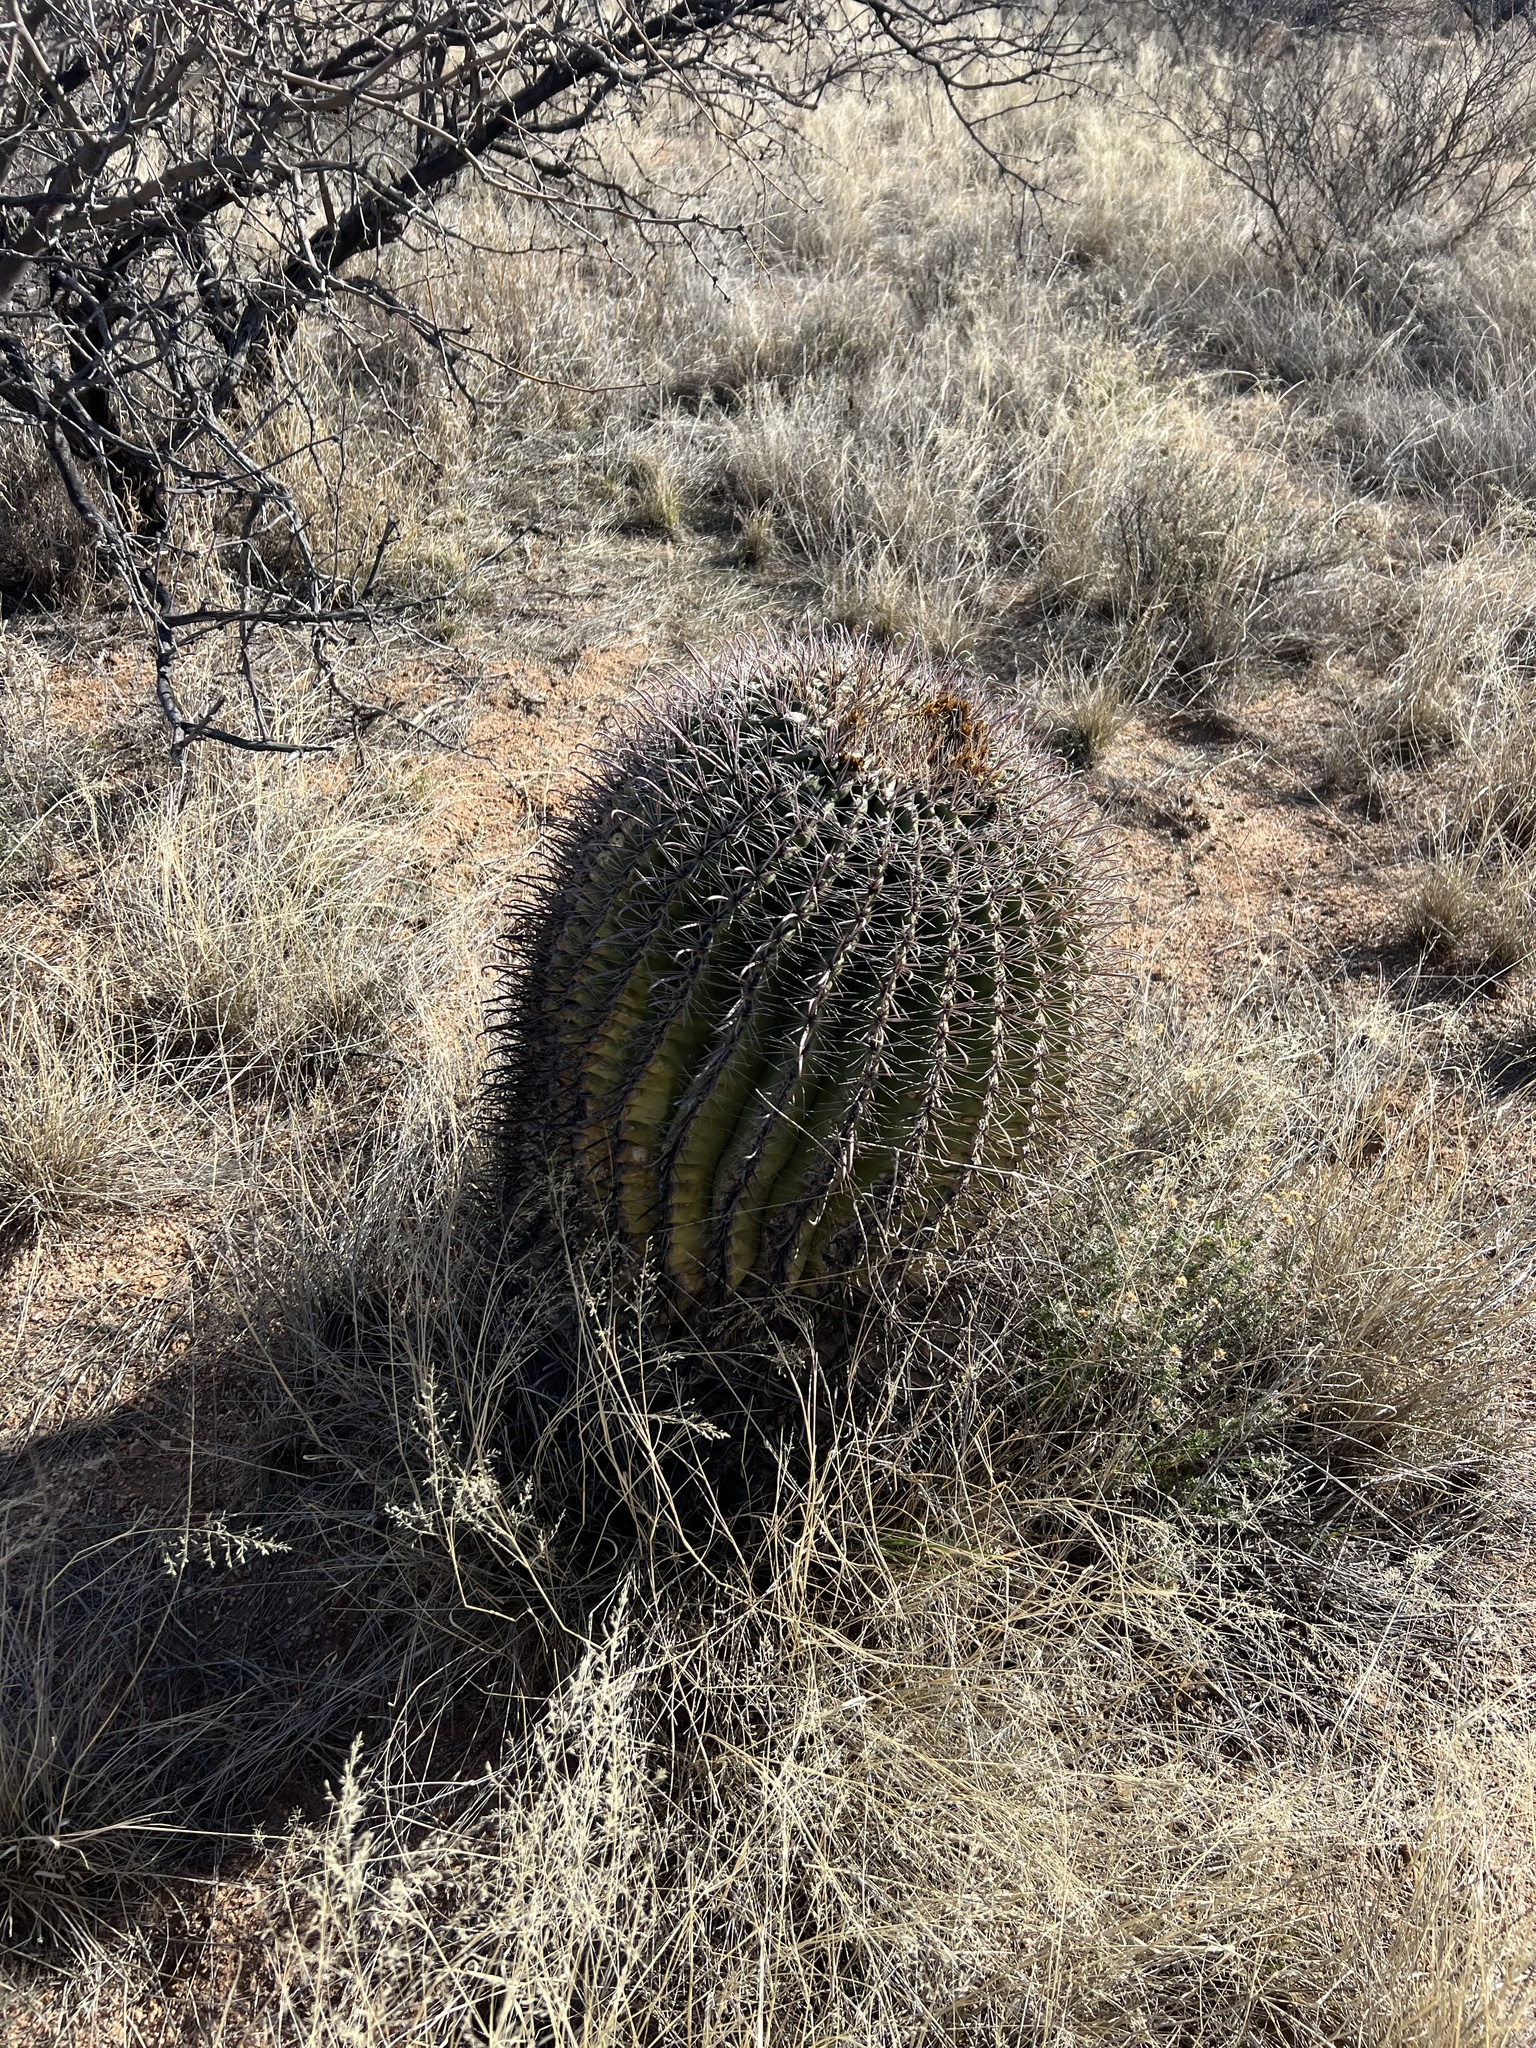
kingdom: Plantae
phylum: Tracheophyta
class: Magnoliopsida
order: Caryophyllales
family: Cactaceae
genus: Ferocactus
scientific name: Ferocactus wislizeni
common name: Candy barrel cactus
